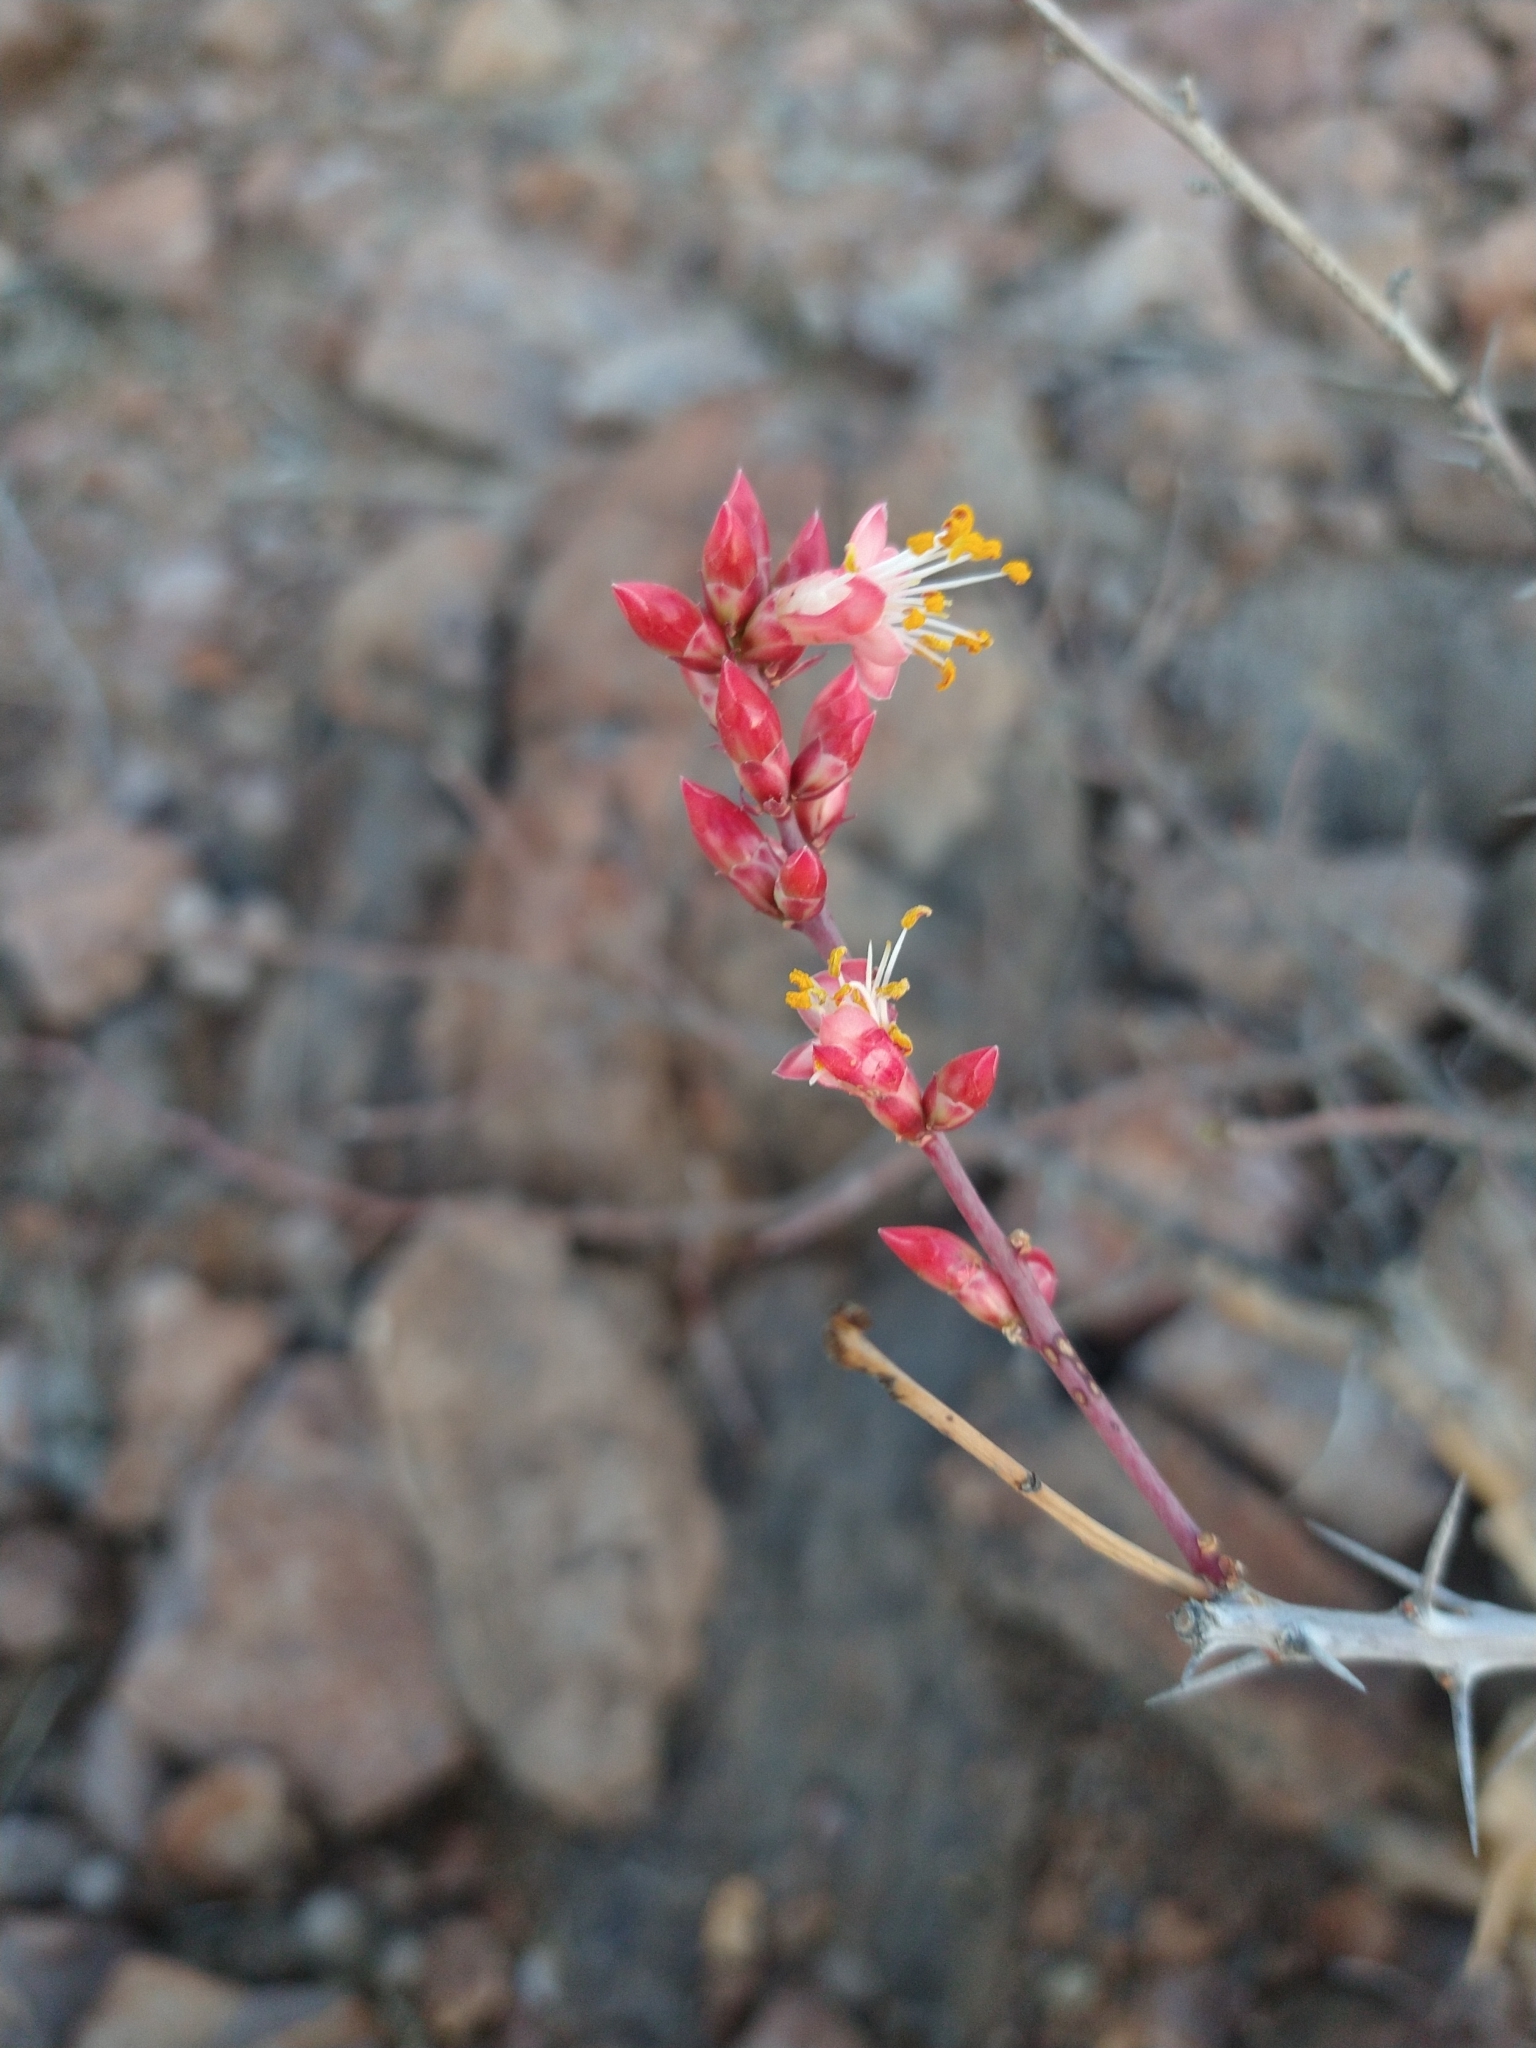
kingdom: Plantae
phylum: Tracheophyta
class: Magnoliopsida
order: Ericales
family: Fouquieriaceae
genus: Fouquieria
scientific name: Fouquieria burragei
